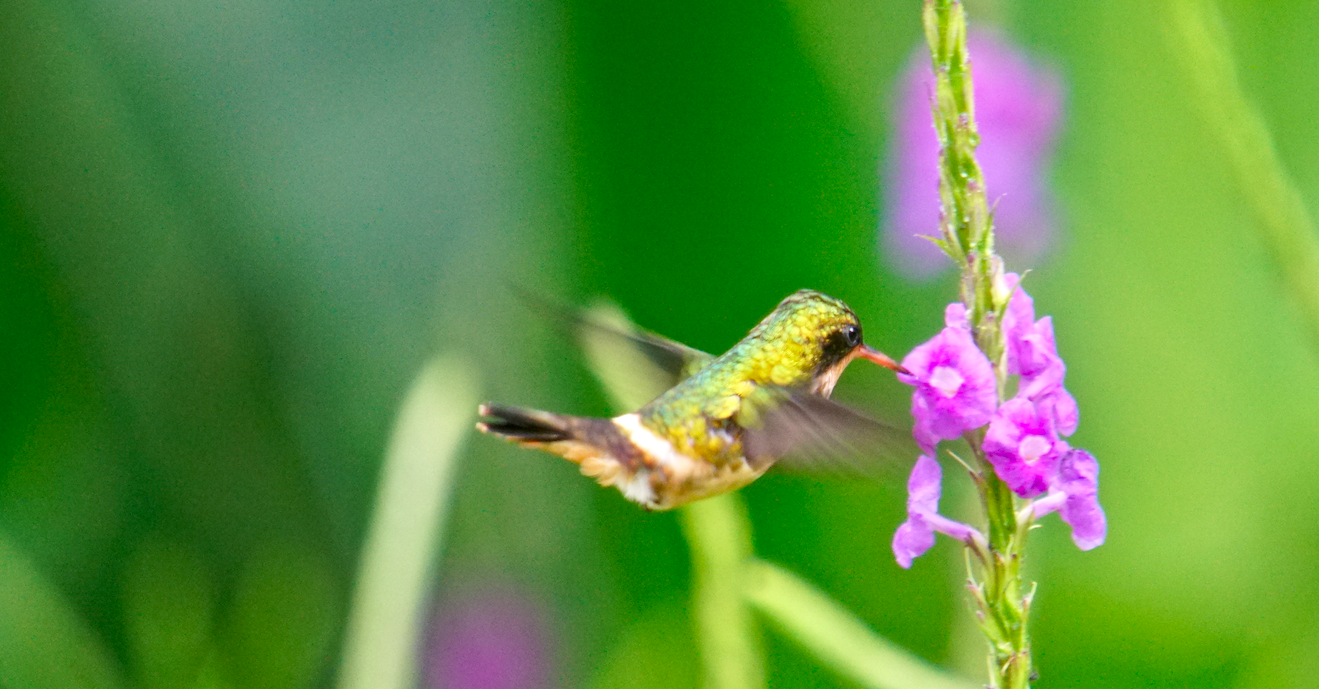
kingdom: Animalia
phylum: Chordata
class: Aves
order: Apodiformes
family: Trochilidae
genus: Lophornis
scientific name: Lophornis helenae
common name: Black-crested coquette
